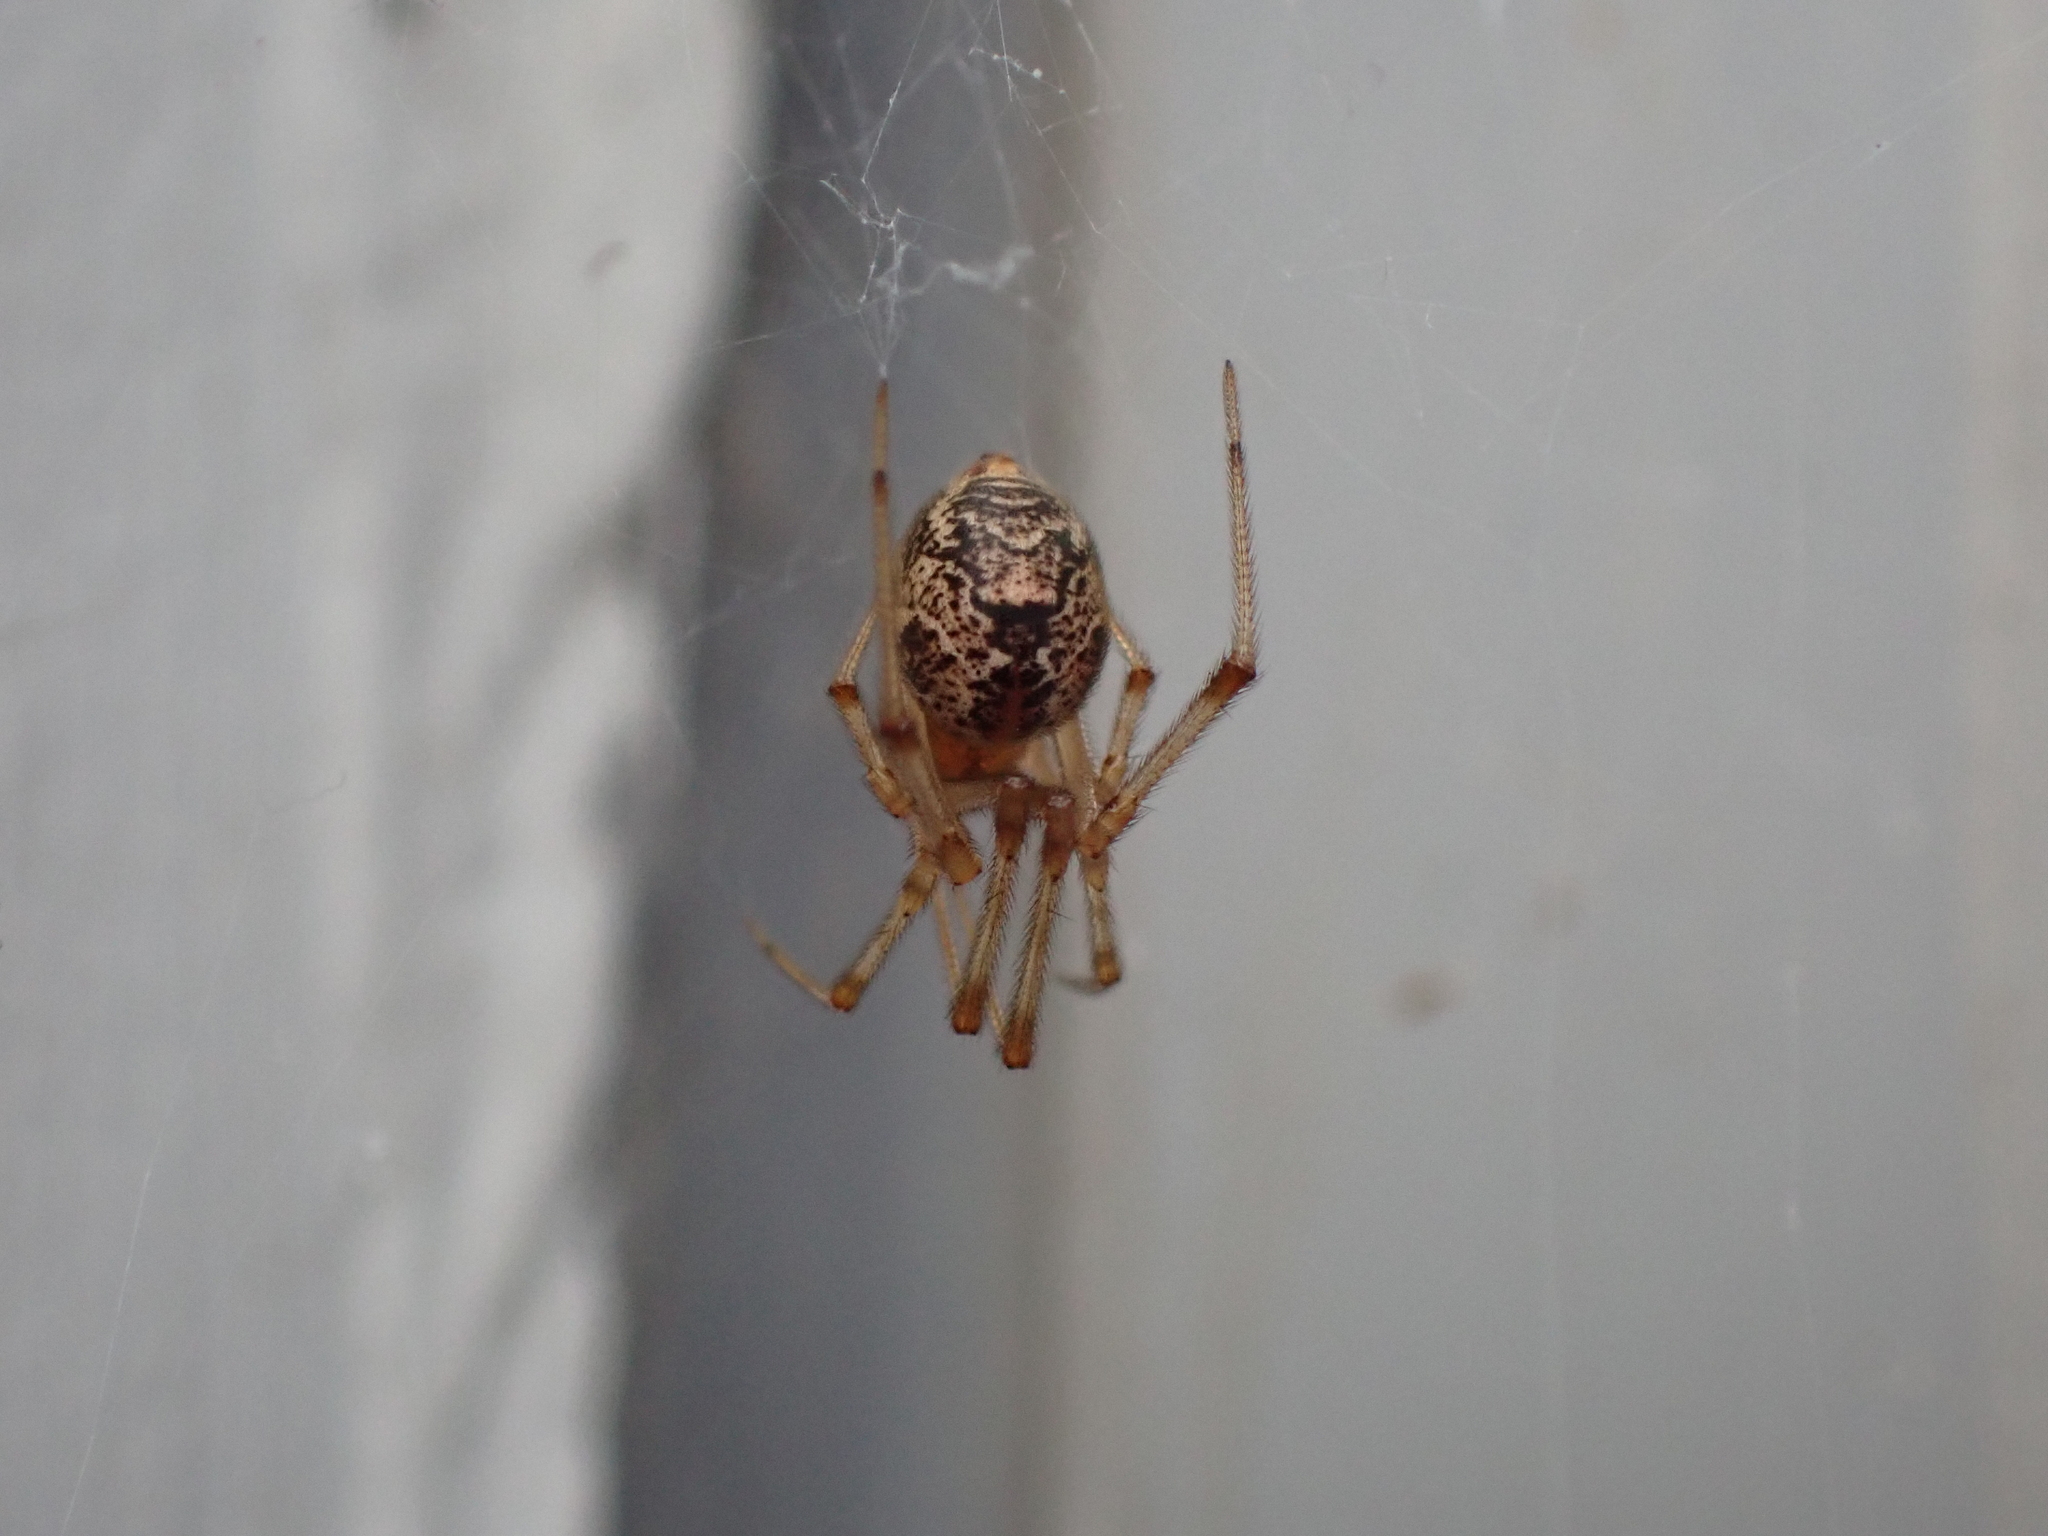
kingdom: Animalia
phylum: Arthropoda
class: Arachnida
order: Araneae
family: Theridiidae
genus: Parasteatoda
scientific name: Parasteatoda tepidariorum
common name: Common house spider
